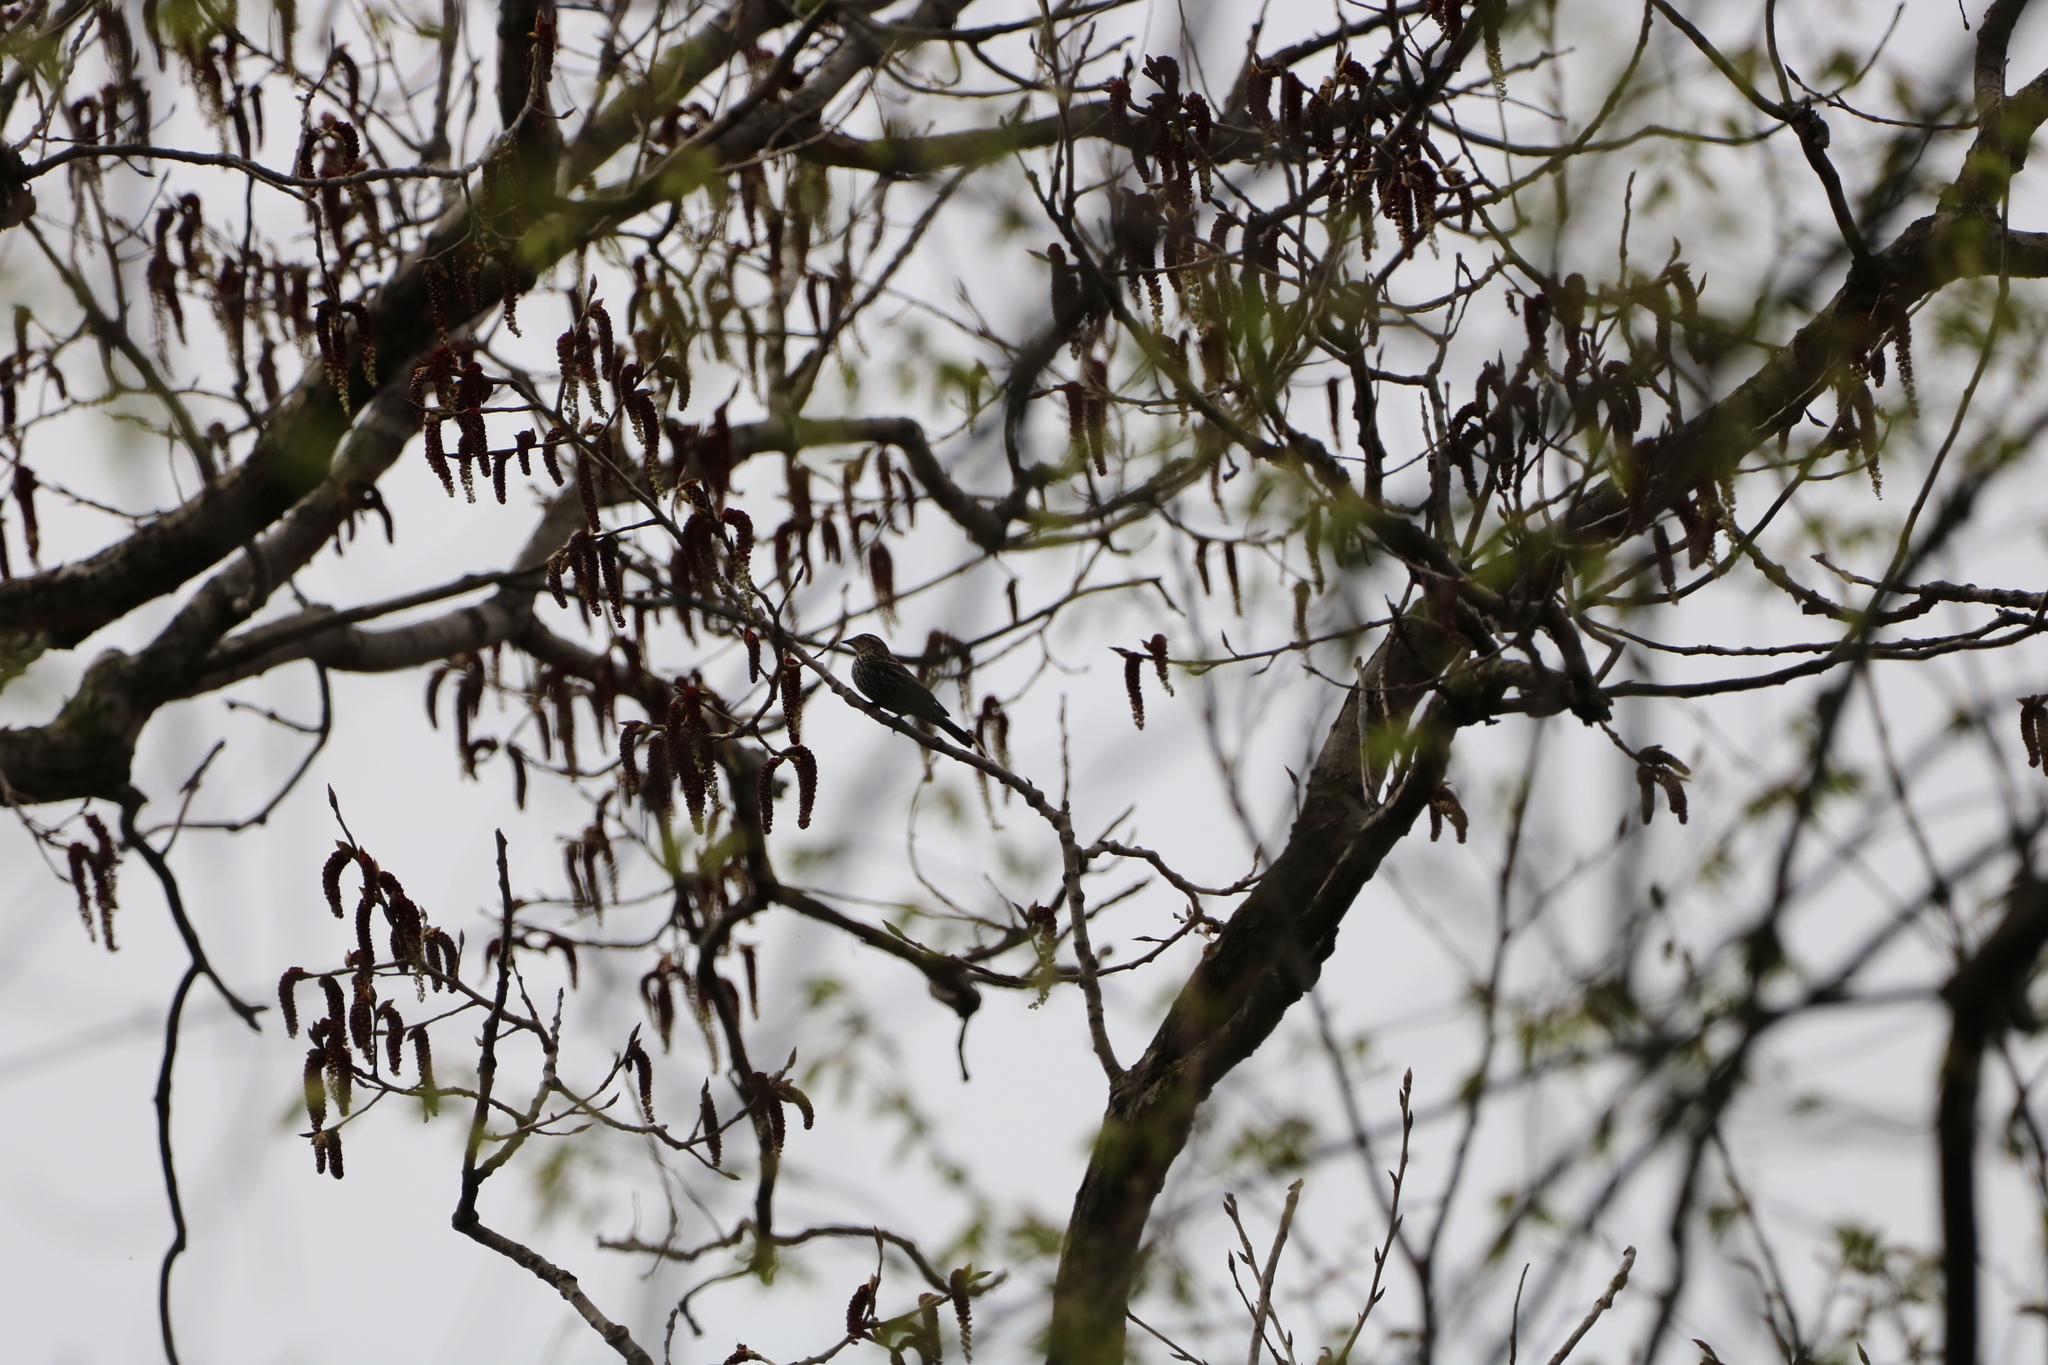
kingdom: Animalia
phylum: Chordata
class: Aves
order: Passeriformes
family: Icteridae
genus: Agelaius
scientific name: Agelaius phoeniceus
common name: Red-winged blackbird
